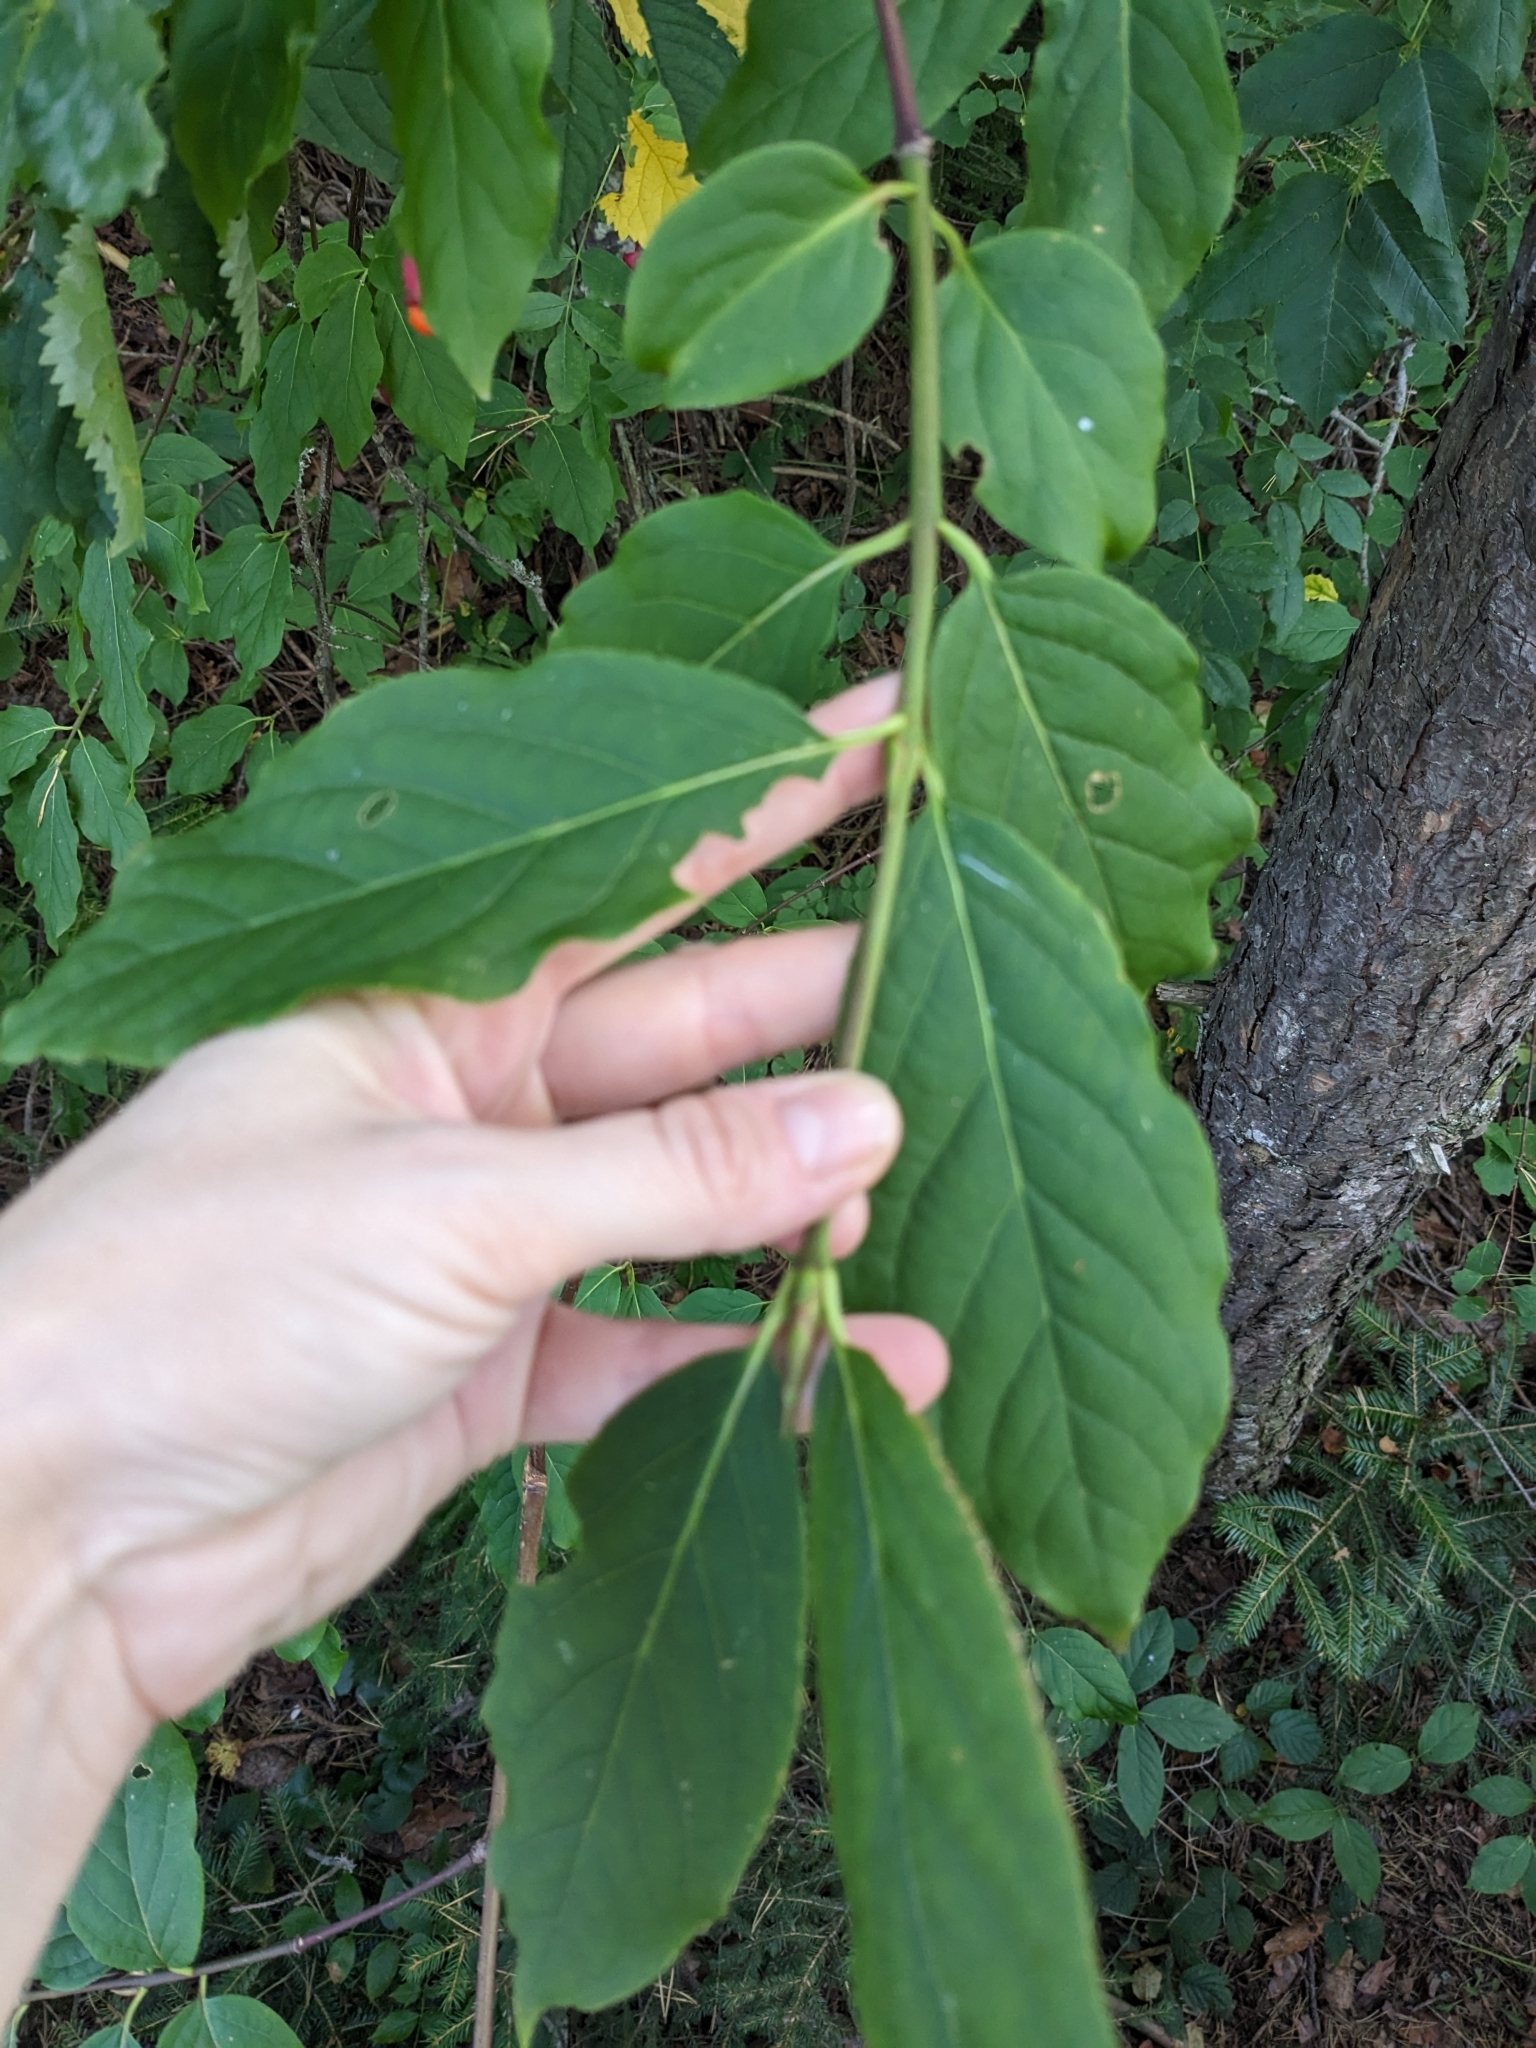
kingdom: Plantae
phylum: Tracheophyta
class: Magnoliopsida
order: Celastrales
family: Celastraceae
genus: Euonymus
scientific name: Euonymus latifolius
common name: Large-leaved spindle
